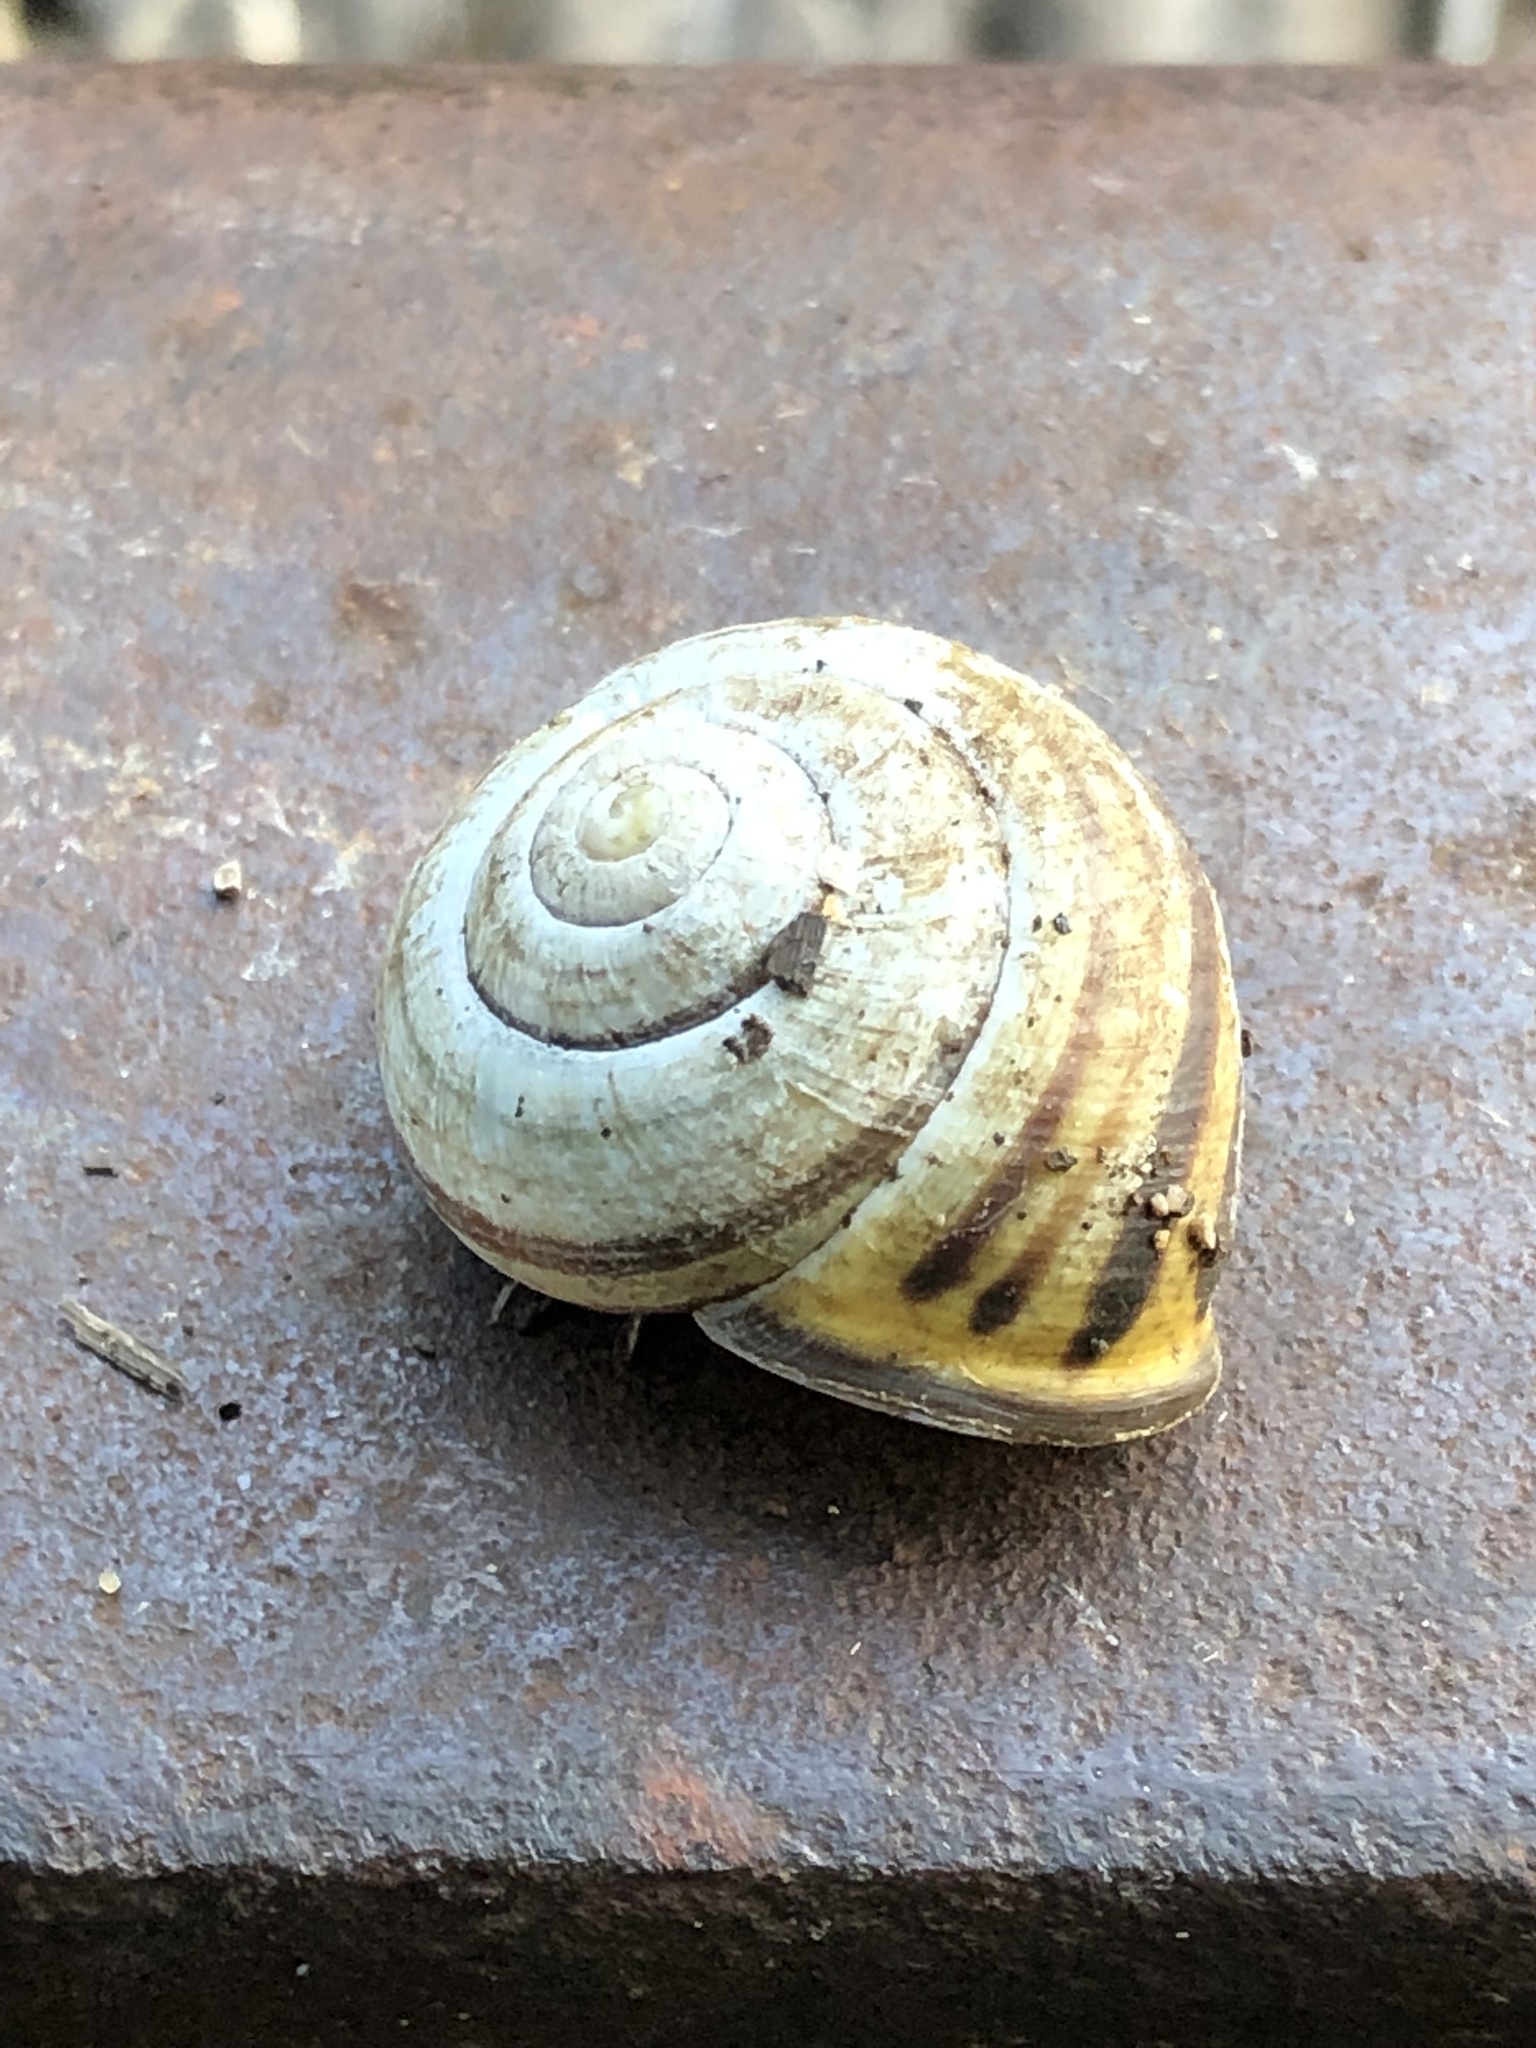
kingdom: Animalia
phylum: Mollusca
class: Gastropoda
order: Stylommatophora
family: Helicidae
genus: Cepaea
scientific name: Cepaea nemoralis
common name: Grovesnail
